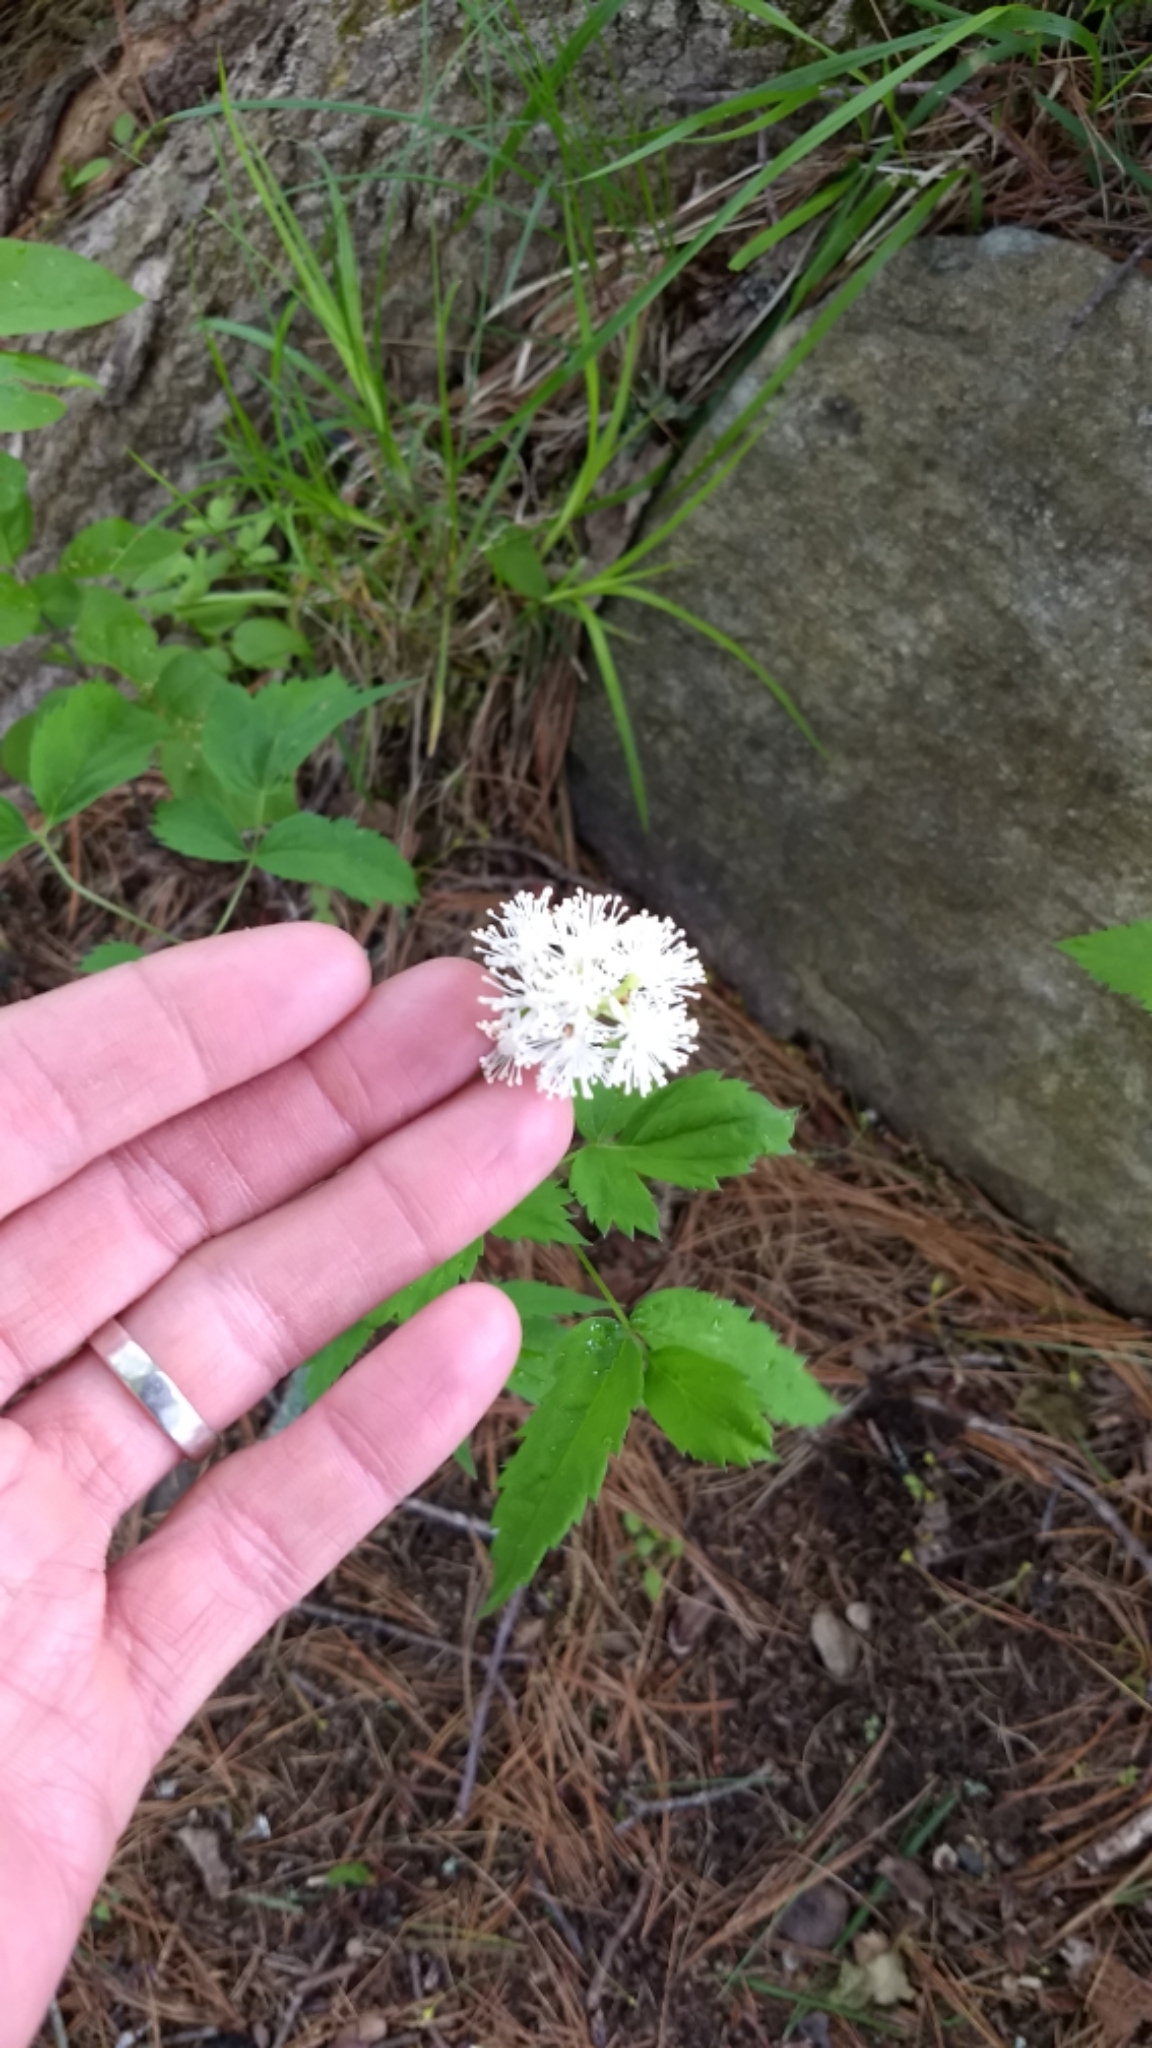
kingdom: Plantae
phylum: Tracheophyta
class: Magnoliopsida
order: Ranunculales
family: Ranunculaceae
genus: Actaea
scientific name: Actaea pachypoda
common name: Doll's-eyes
